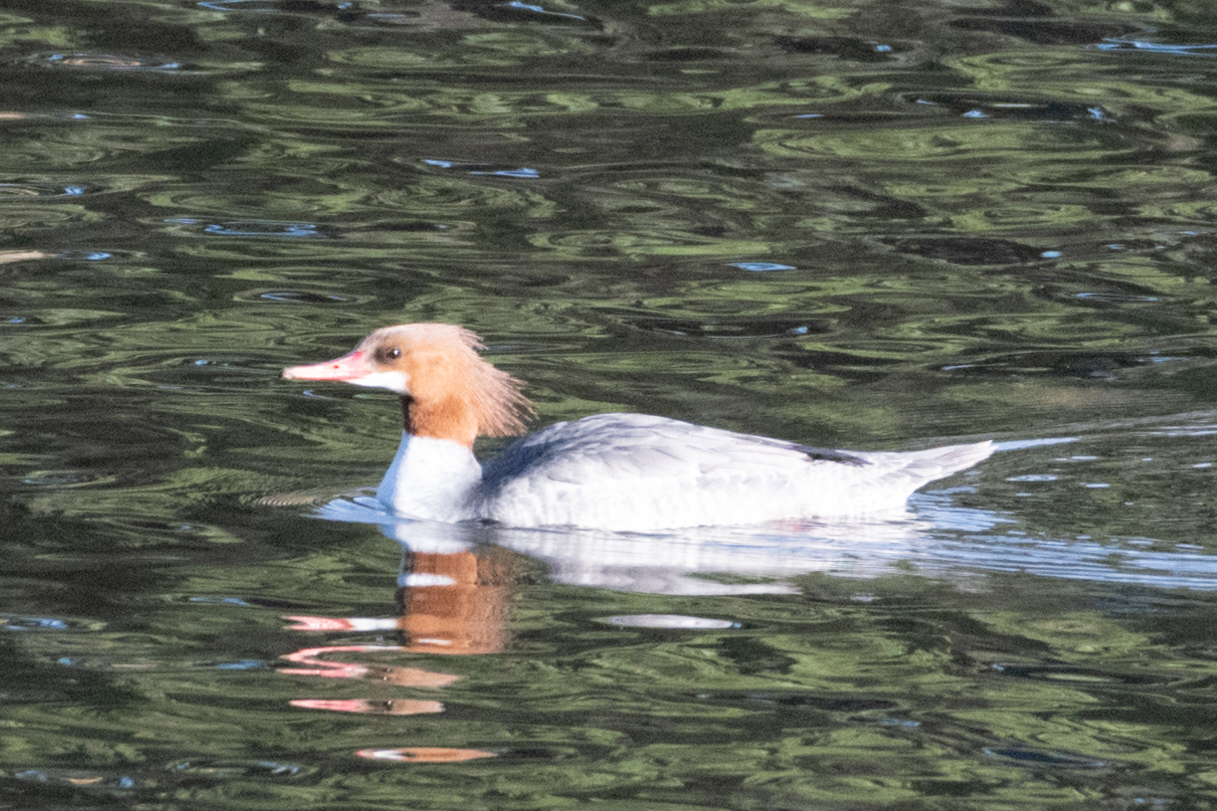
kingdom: Animalia
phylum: Chordata
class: Aves
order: Anseriformes
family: Anatidae
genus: Mergus
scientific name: Mergus merganser
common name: Common merganser
